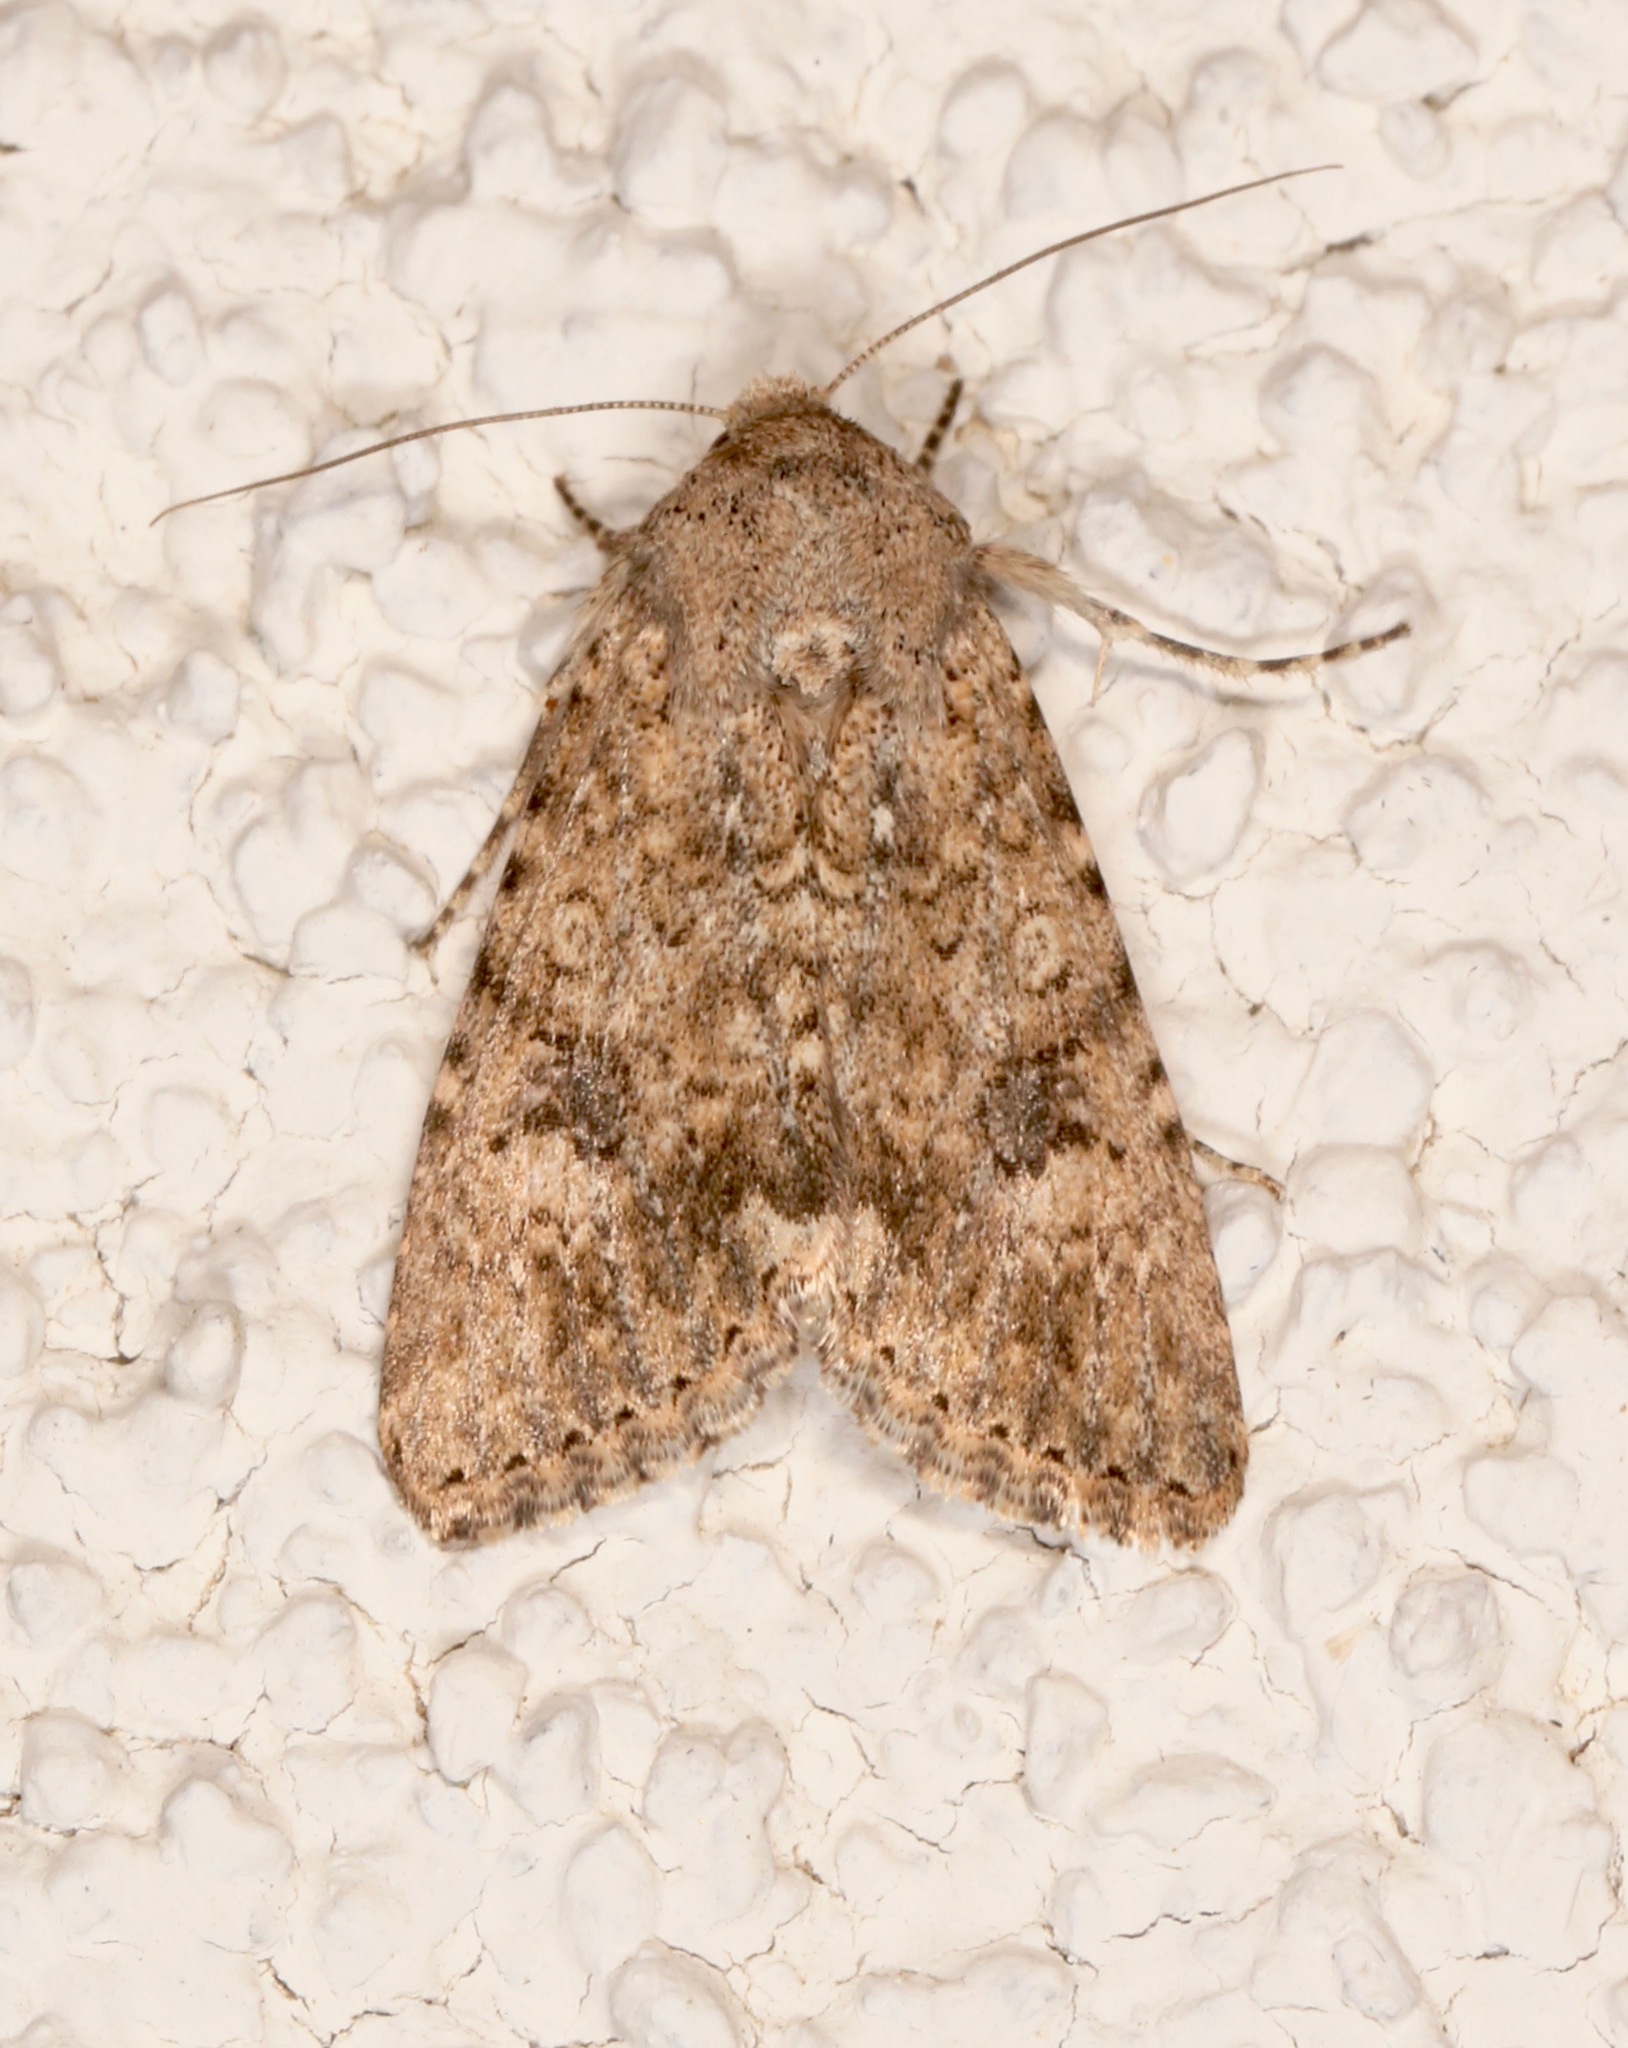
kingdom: Animalia
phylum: Arthropoda
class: Insecta
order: Lepidoptera
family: Noctuidae
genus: Tridepia
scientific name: Tridepia nova
